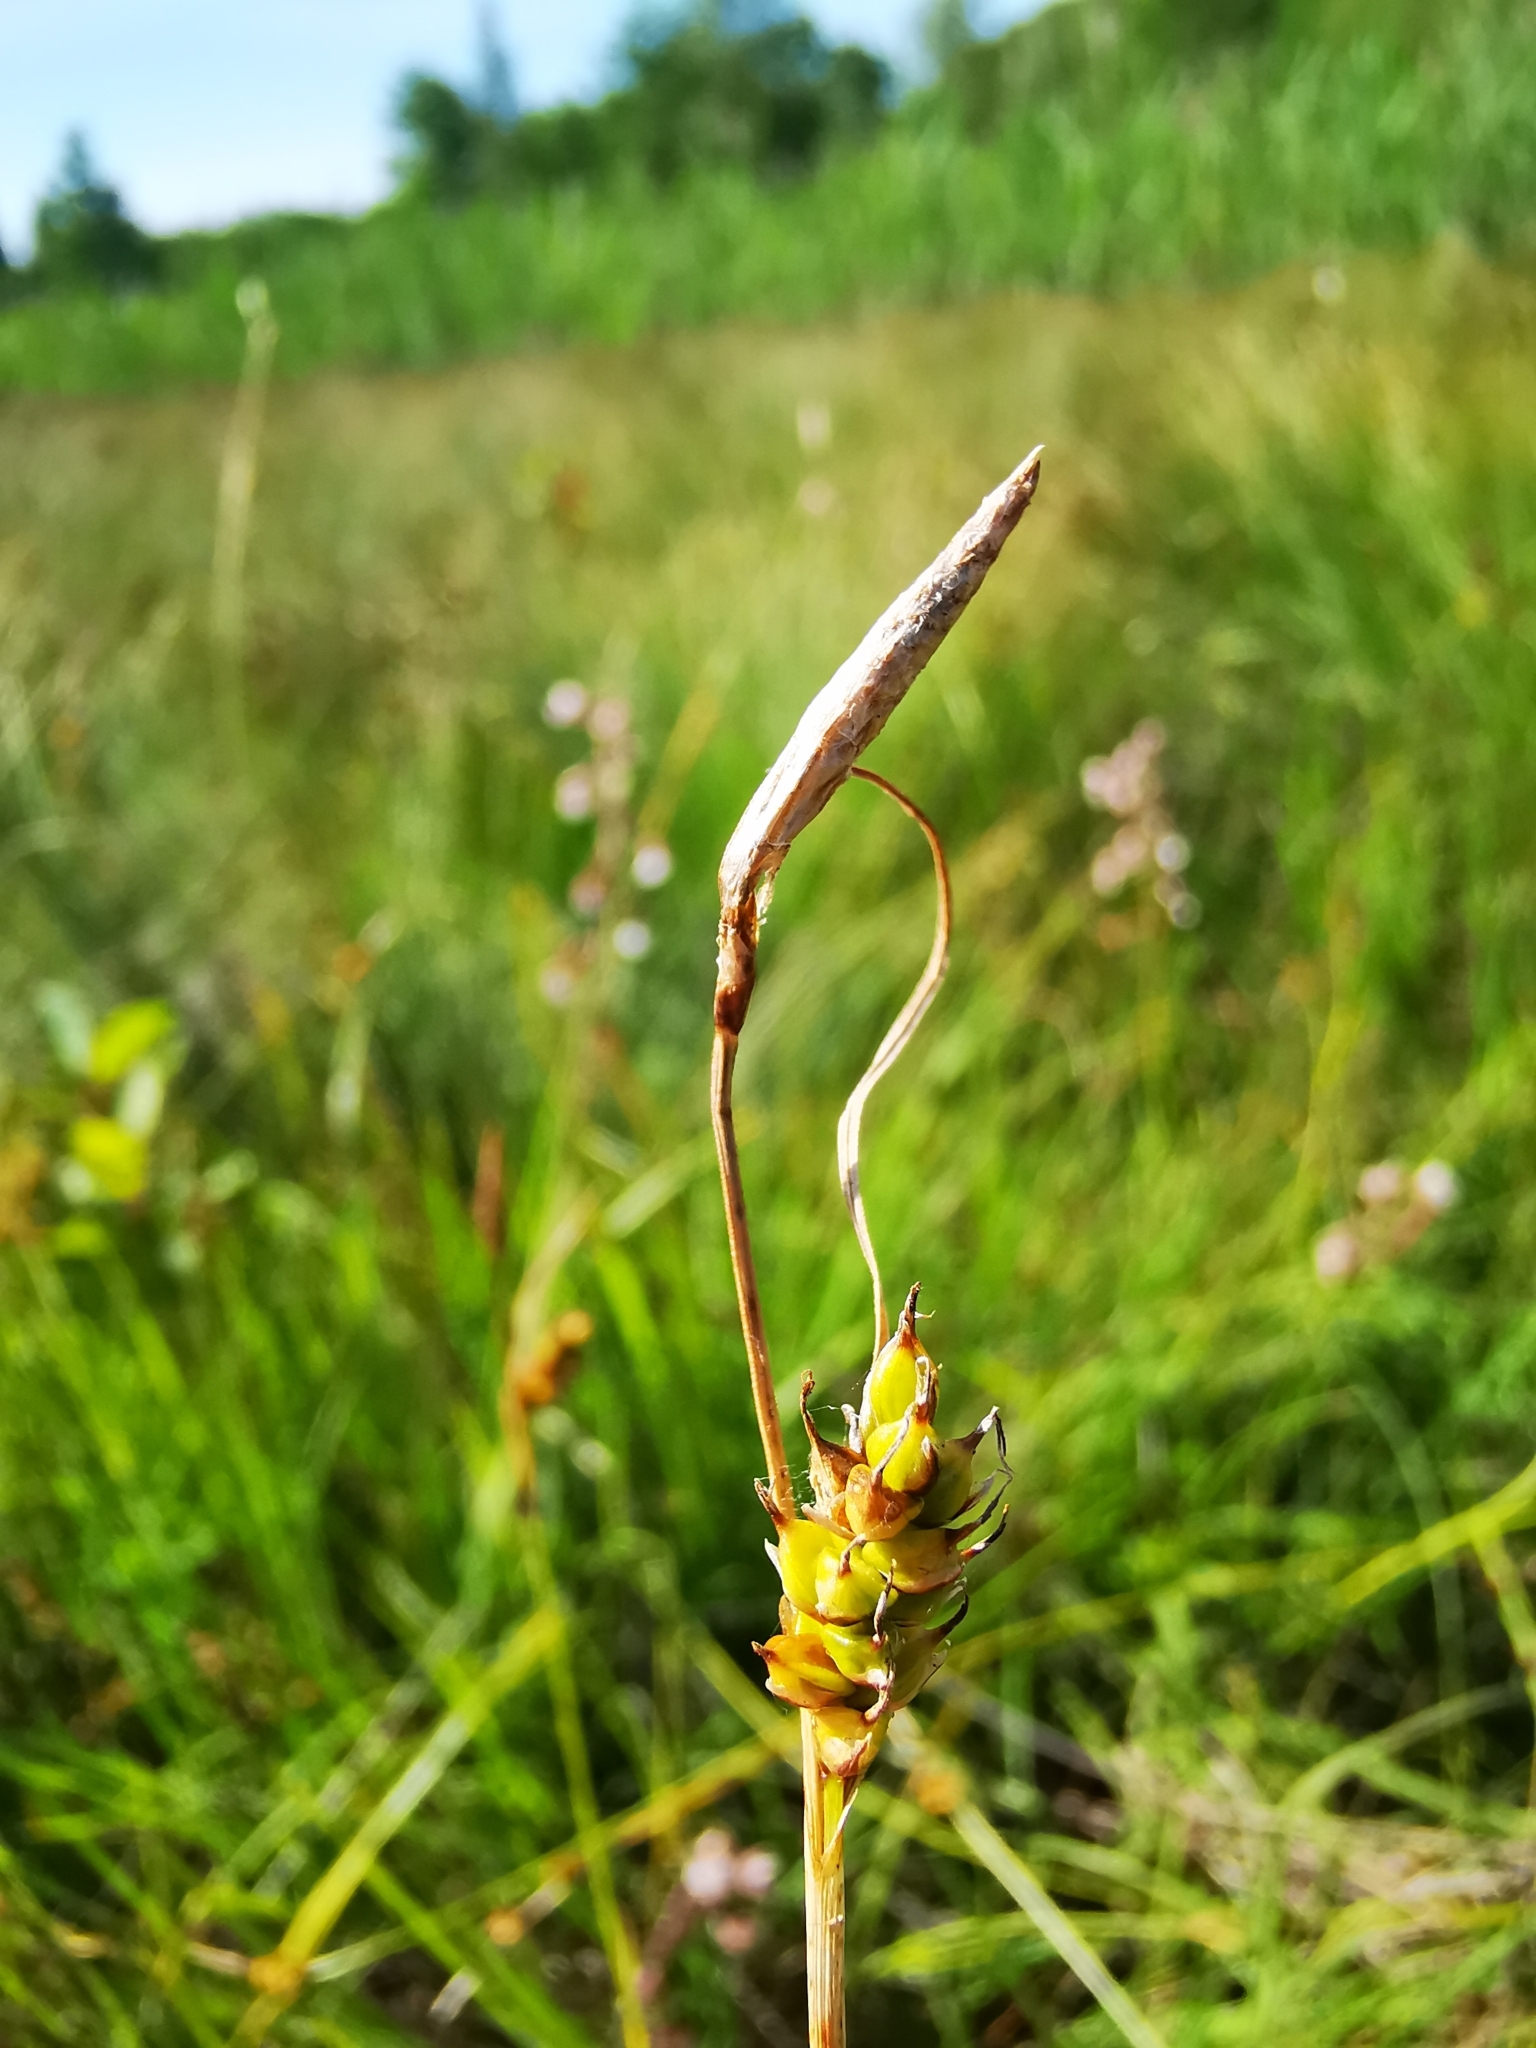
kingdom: Plantae
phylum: Tracheophyta
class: Liliopsida
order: Poales
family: Cyperaceae
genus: Carex
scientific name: Carex hostiana
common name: Tawny sedge
